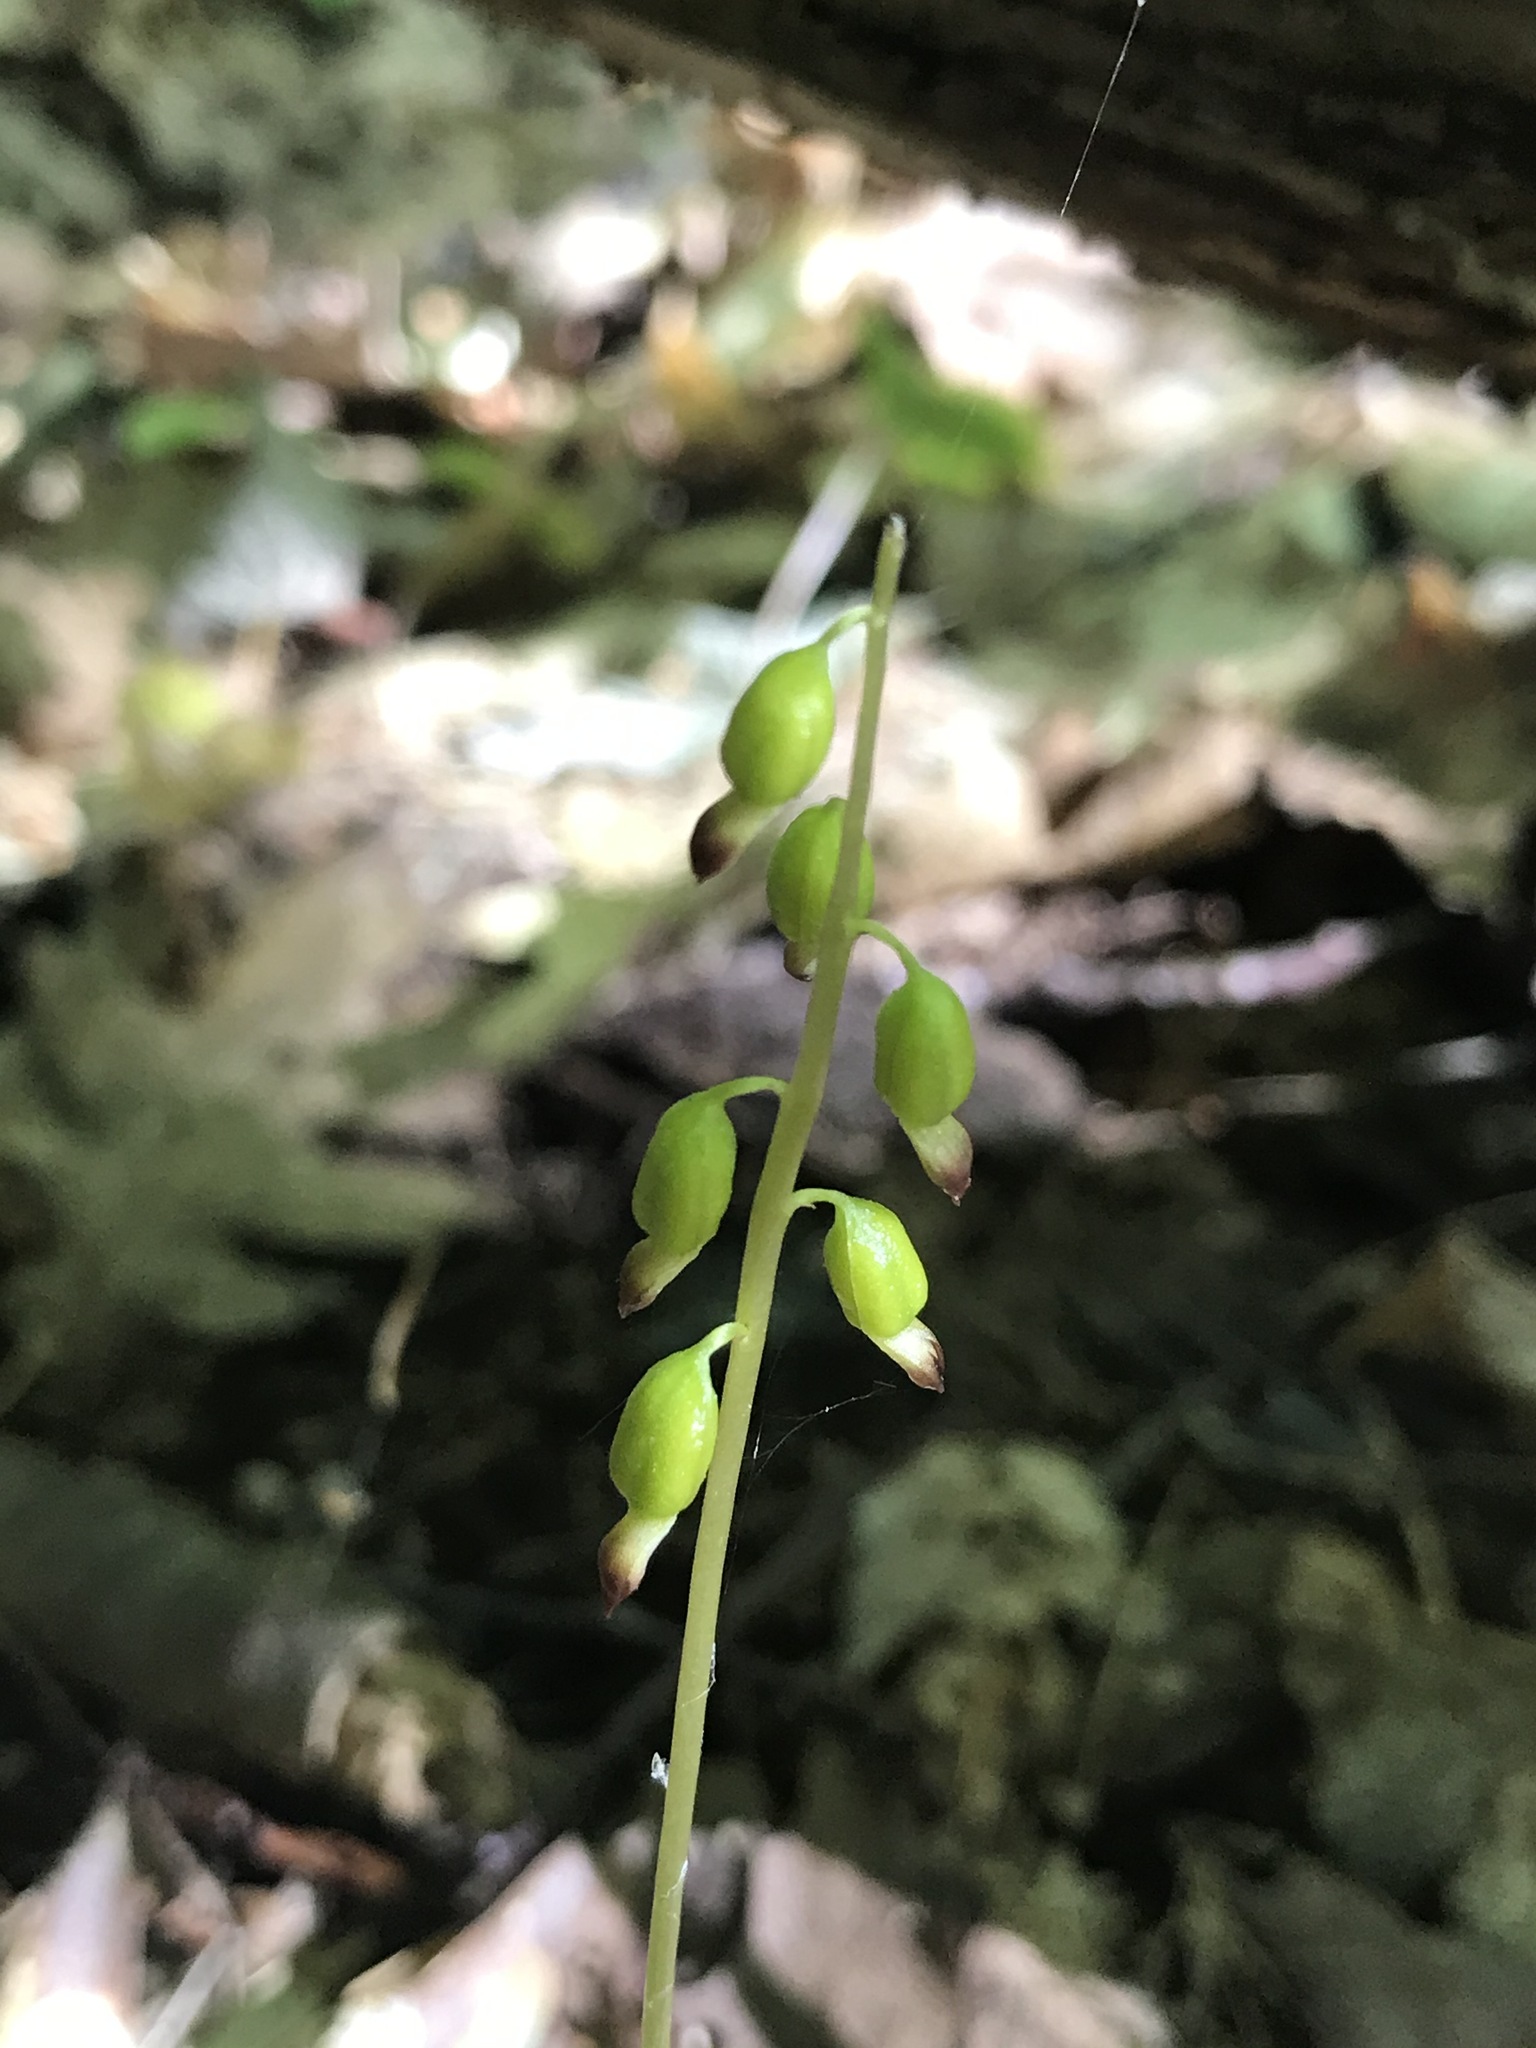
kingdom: Plantae
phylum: Tracheophyta
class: Liliopsida
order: Asparagales
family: Orchidaceae
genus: Corallorhiza
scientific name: Corallorhiza odontorhiza
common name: Autumn coralroot
